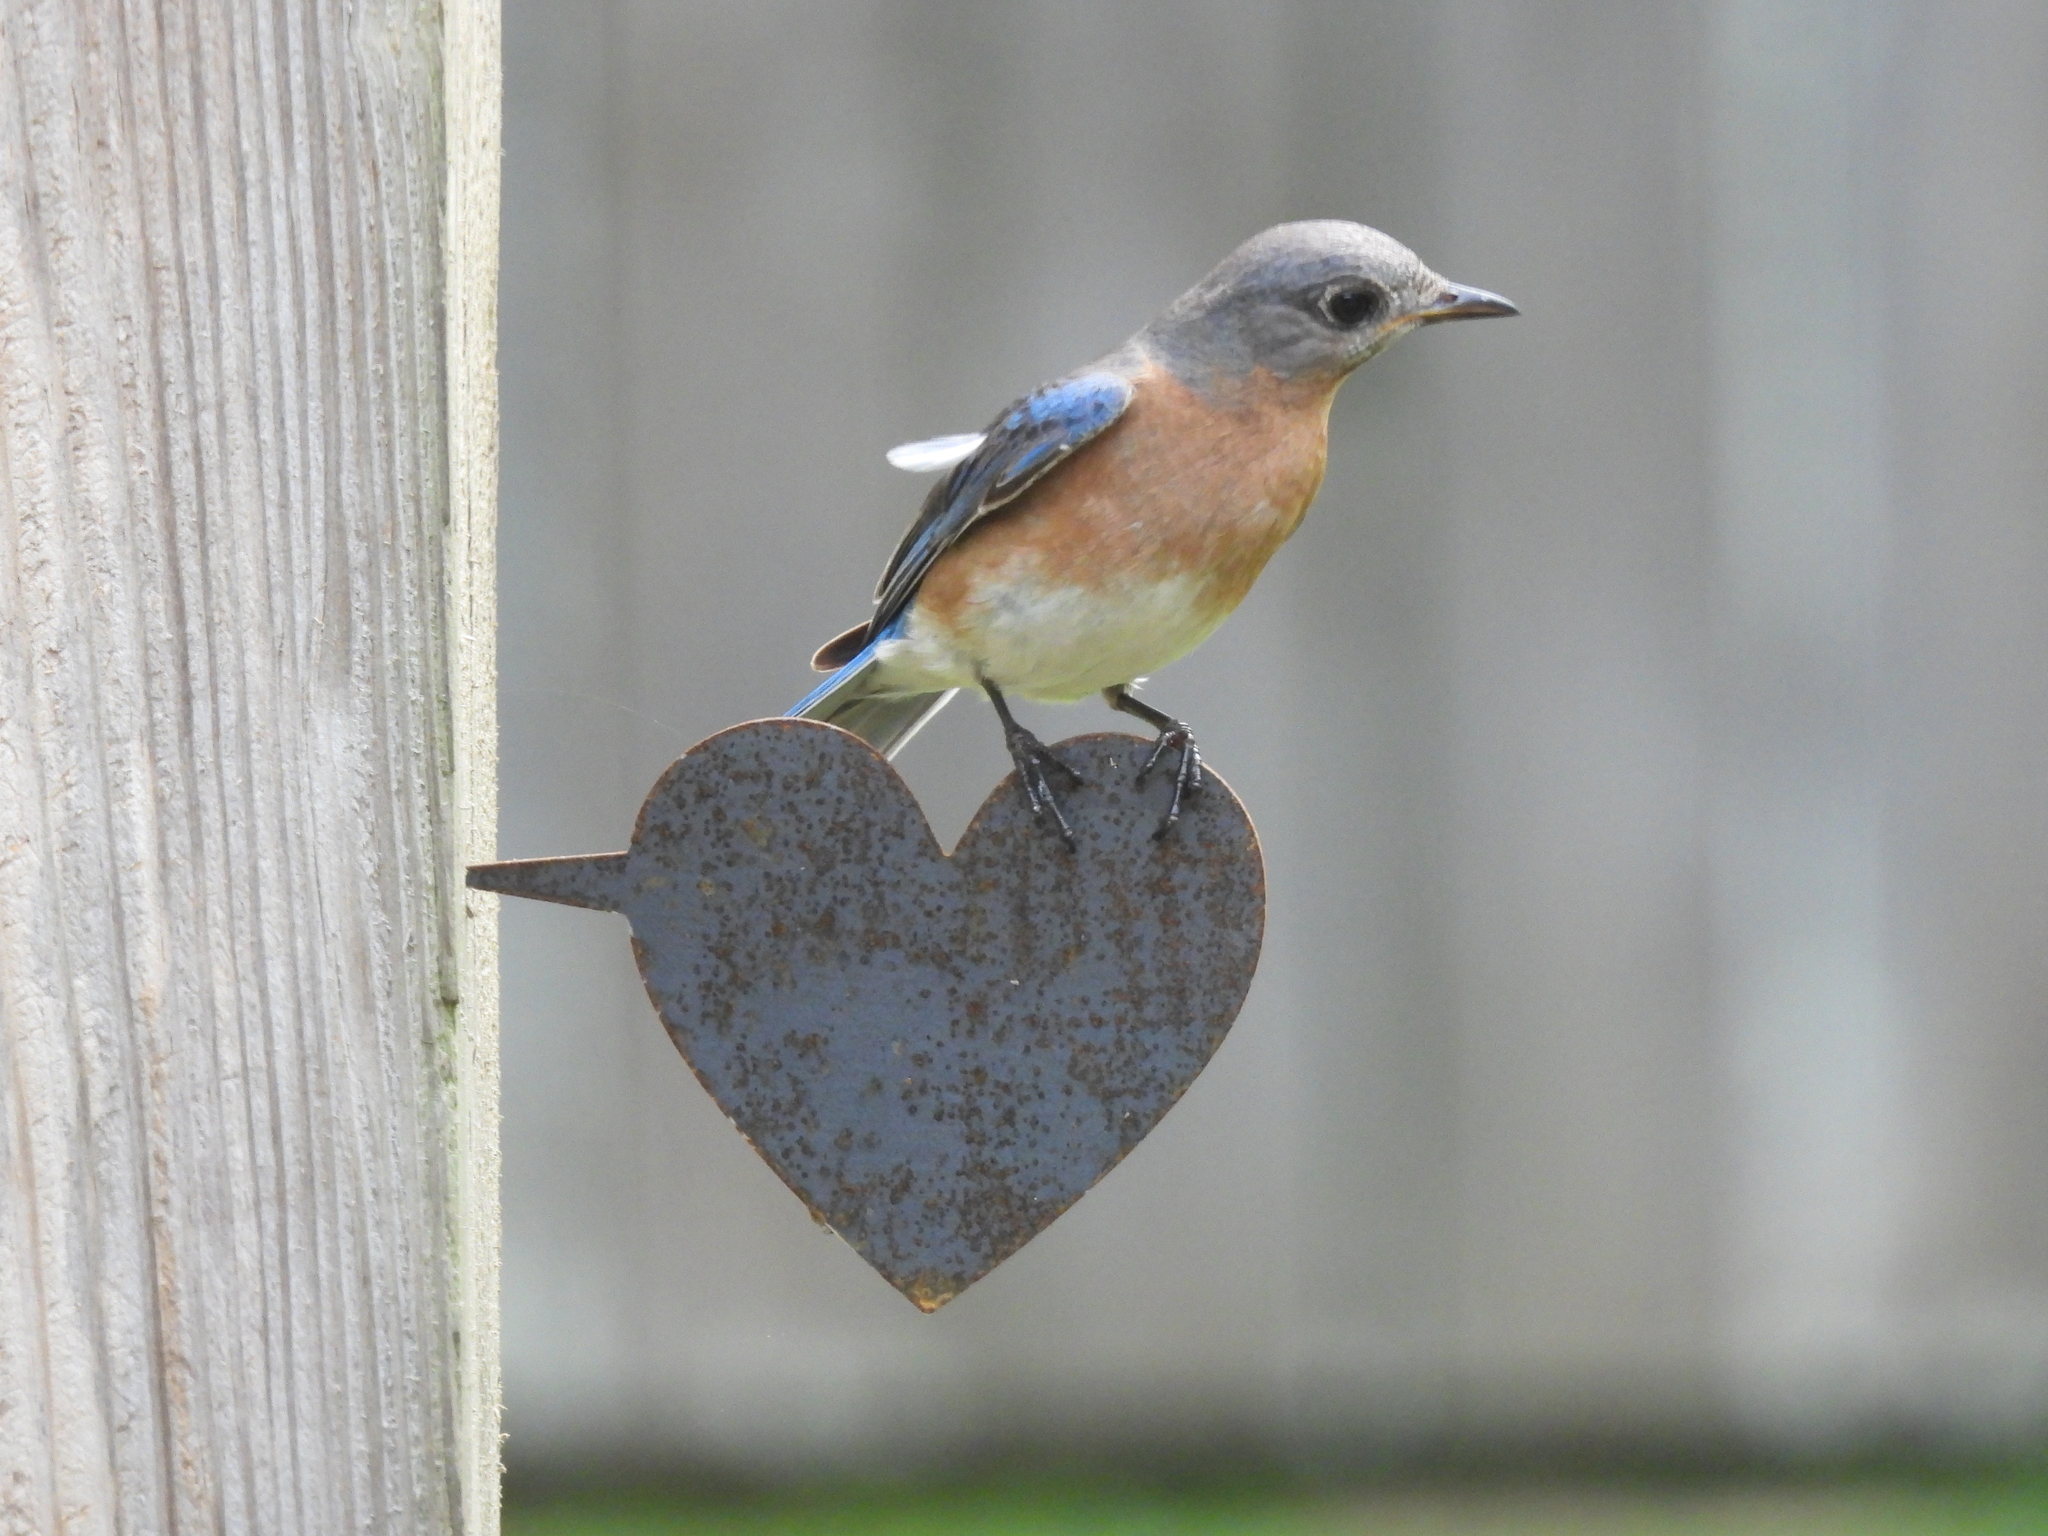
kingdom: Animalia
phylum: Chordata
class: Aves
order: Passeriformes
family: Turdidae
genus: Sialia
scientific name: Sialia sialis
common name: Eastern bluebird
